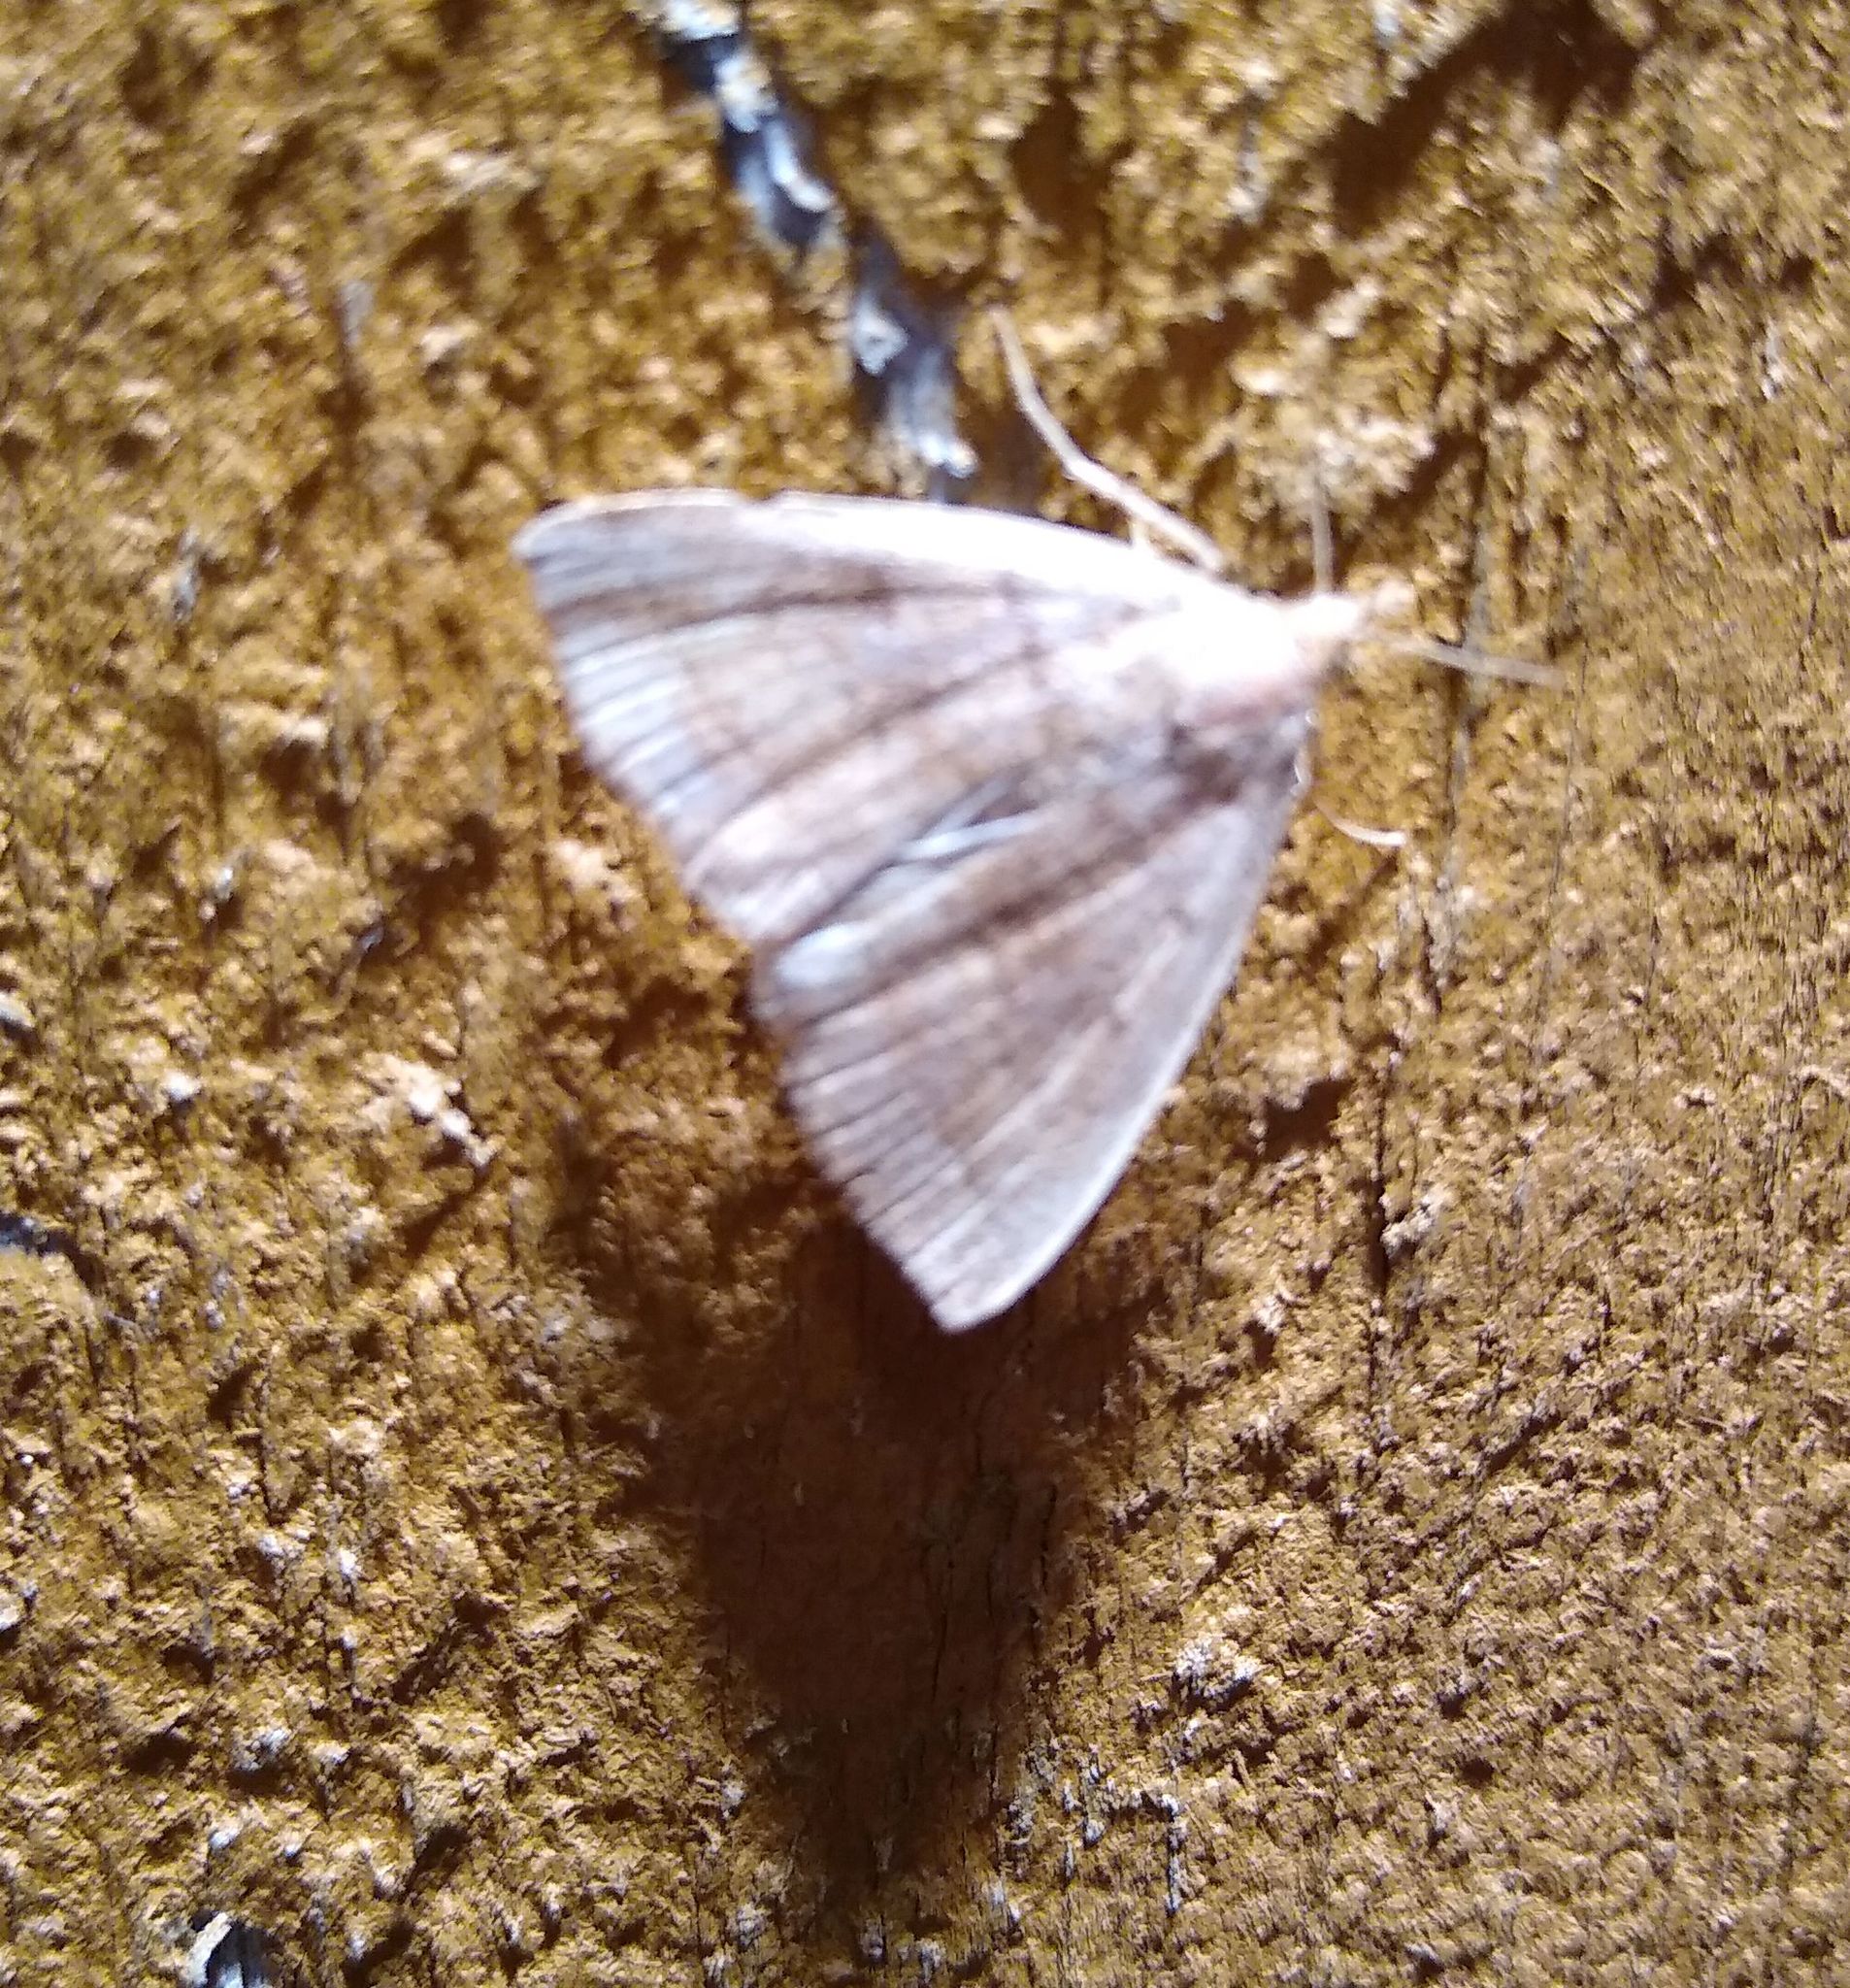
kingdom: Animalia
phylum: Arthropoda
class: Insecta
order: Lepidoptera
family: Geometridae
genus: Nematocampa
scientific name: Nematocampa resistaria
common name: Horned spanworm moth
